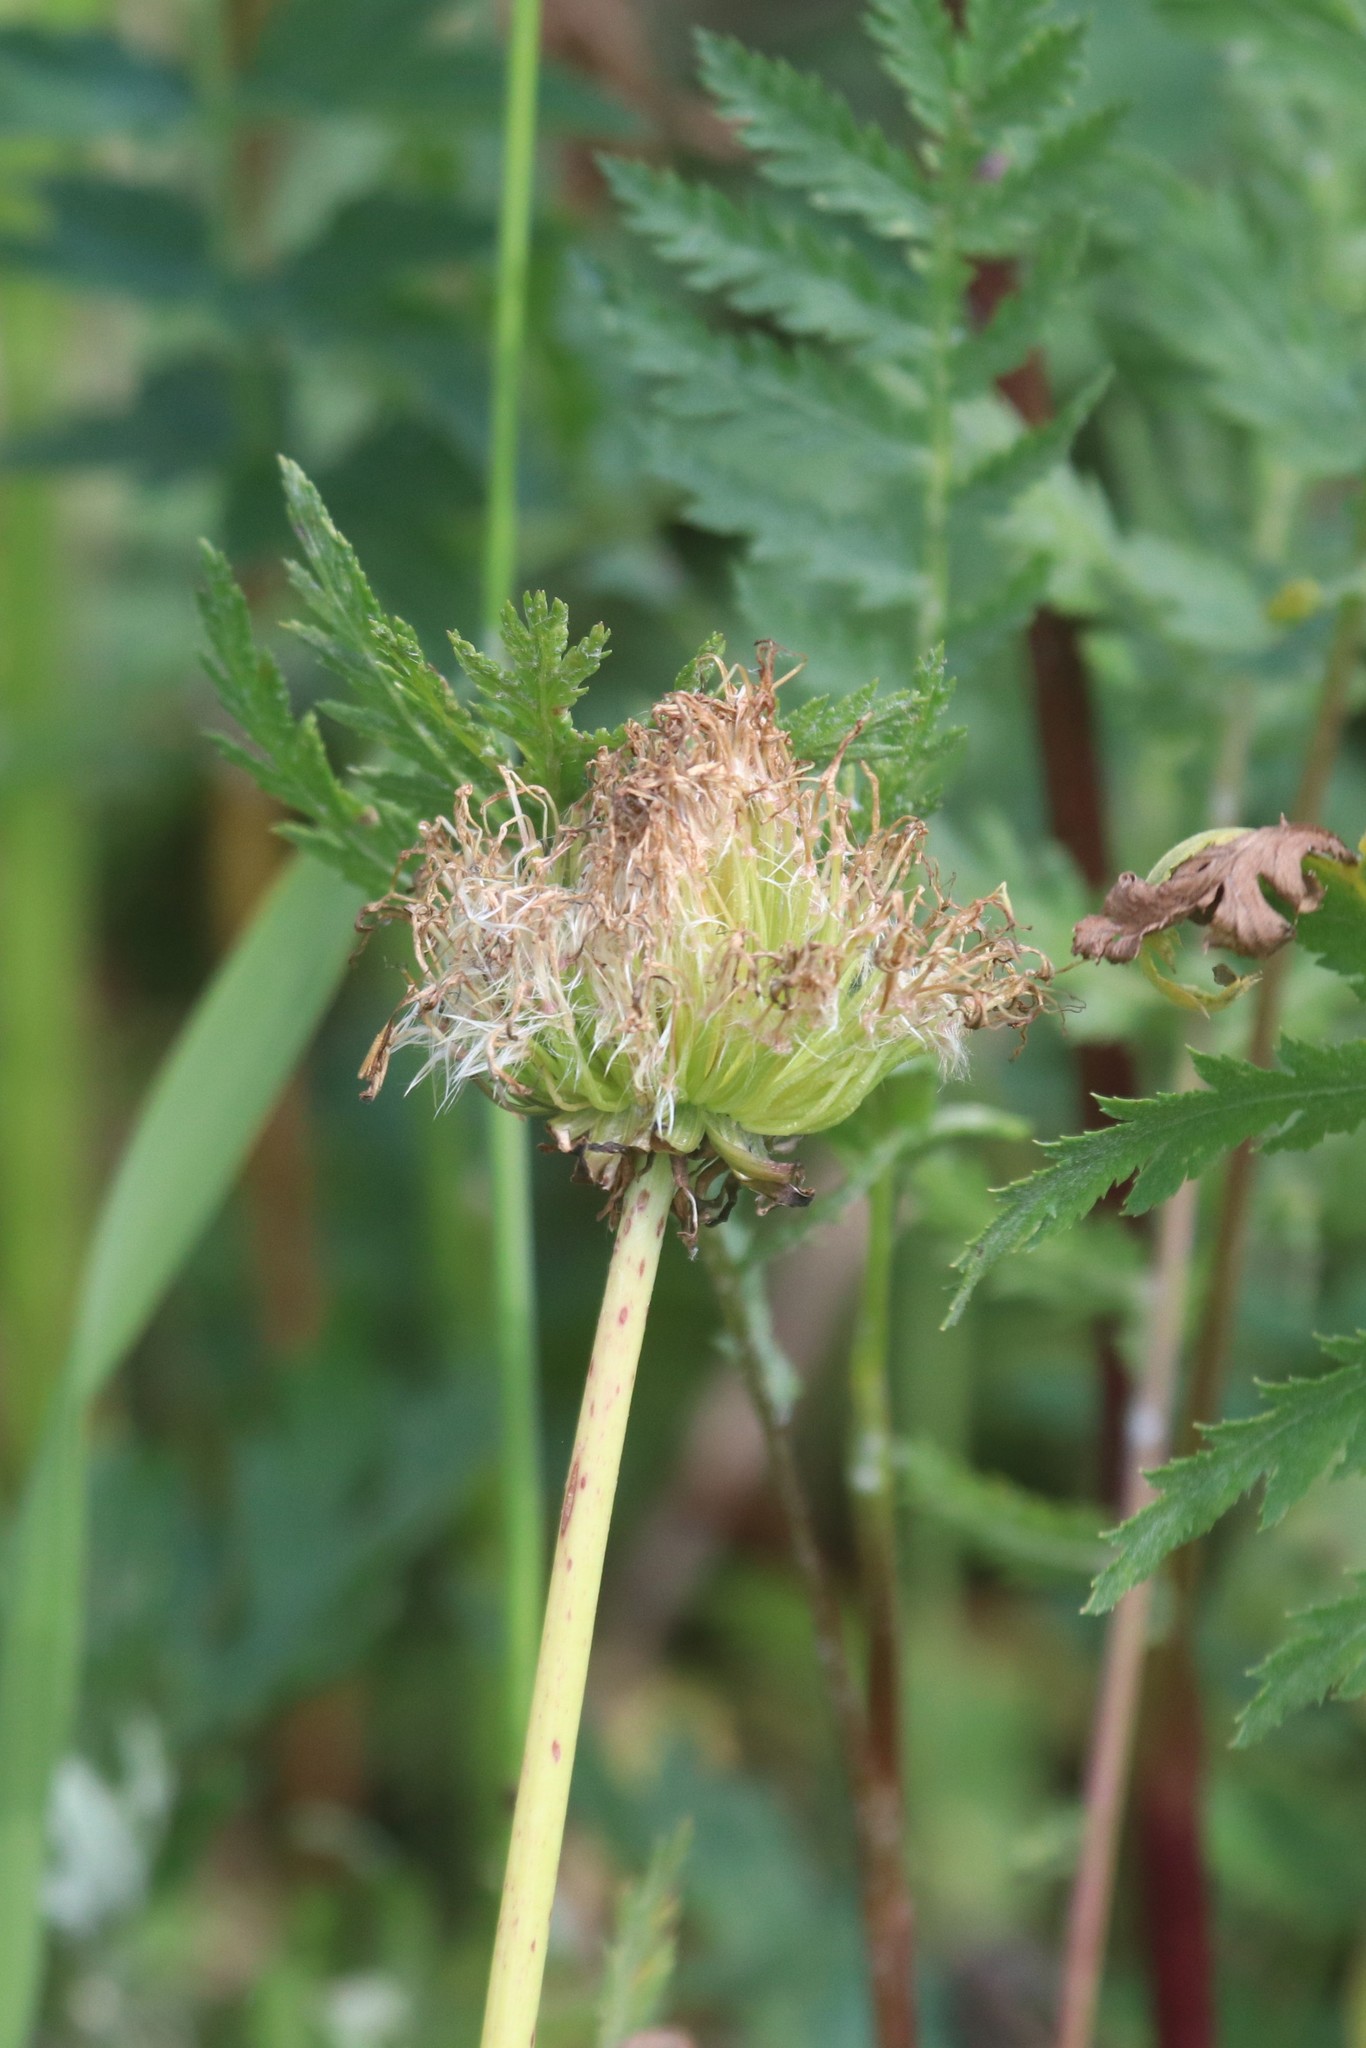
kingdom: Plantae
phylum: Tracheophyta
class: Magnoliopsida
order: Asterales
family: Asteraceae
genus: Taraxacum
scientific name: Taraxacum officinale
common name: Common dandelion
